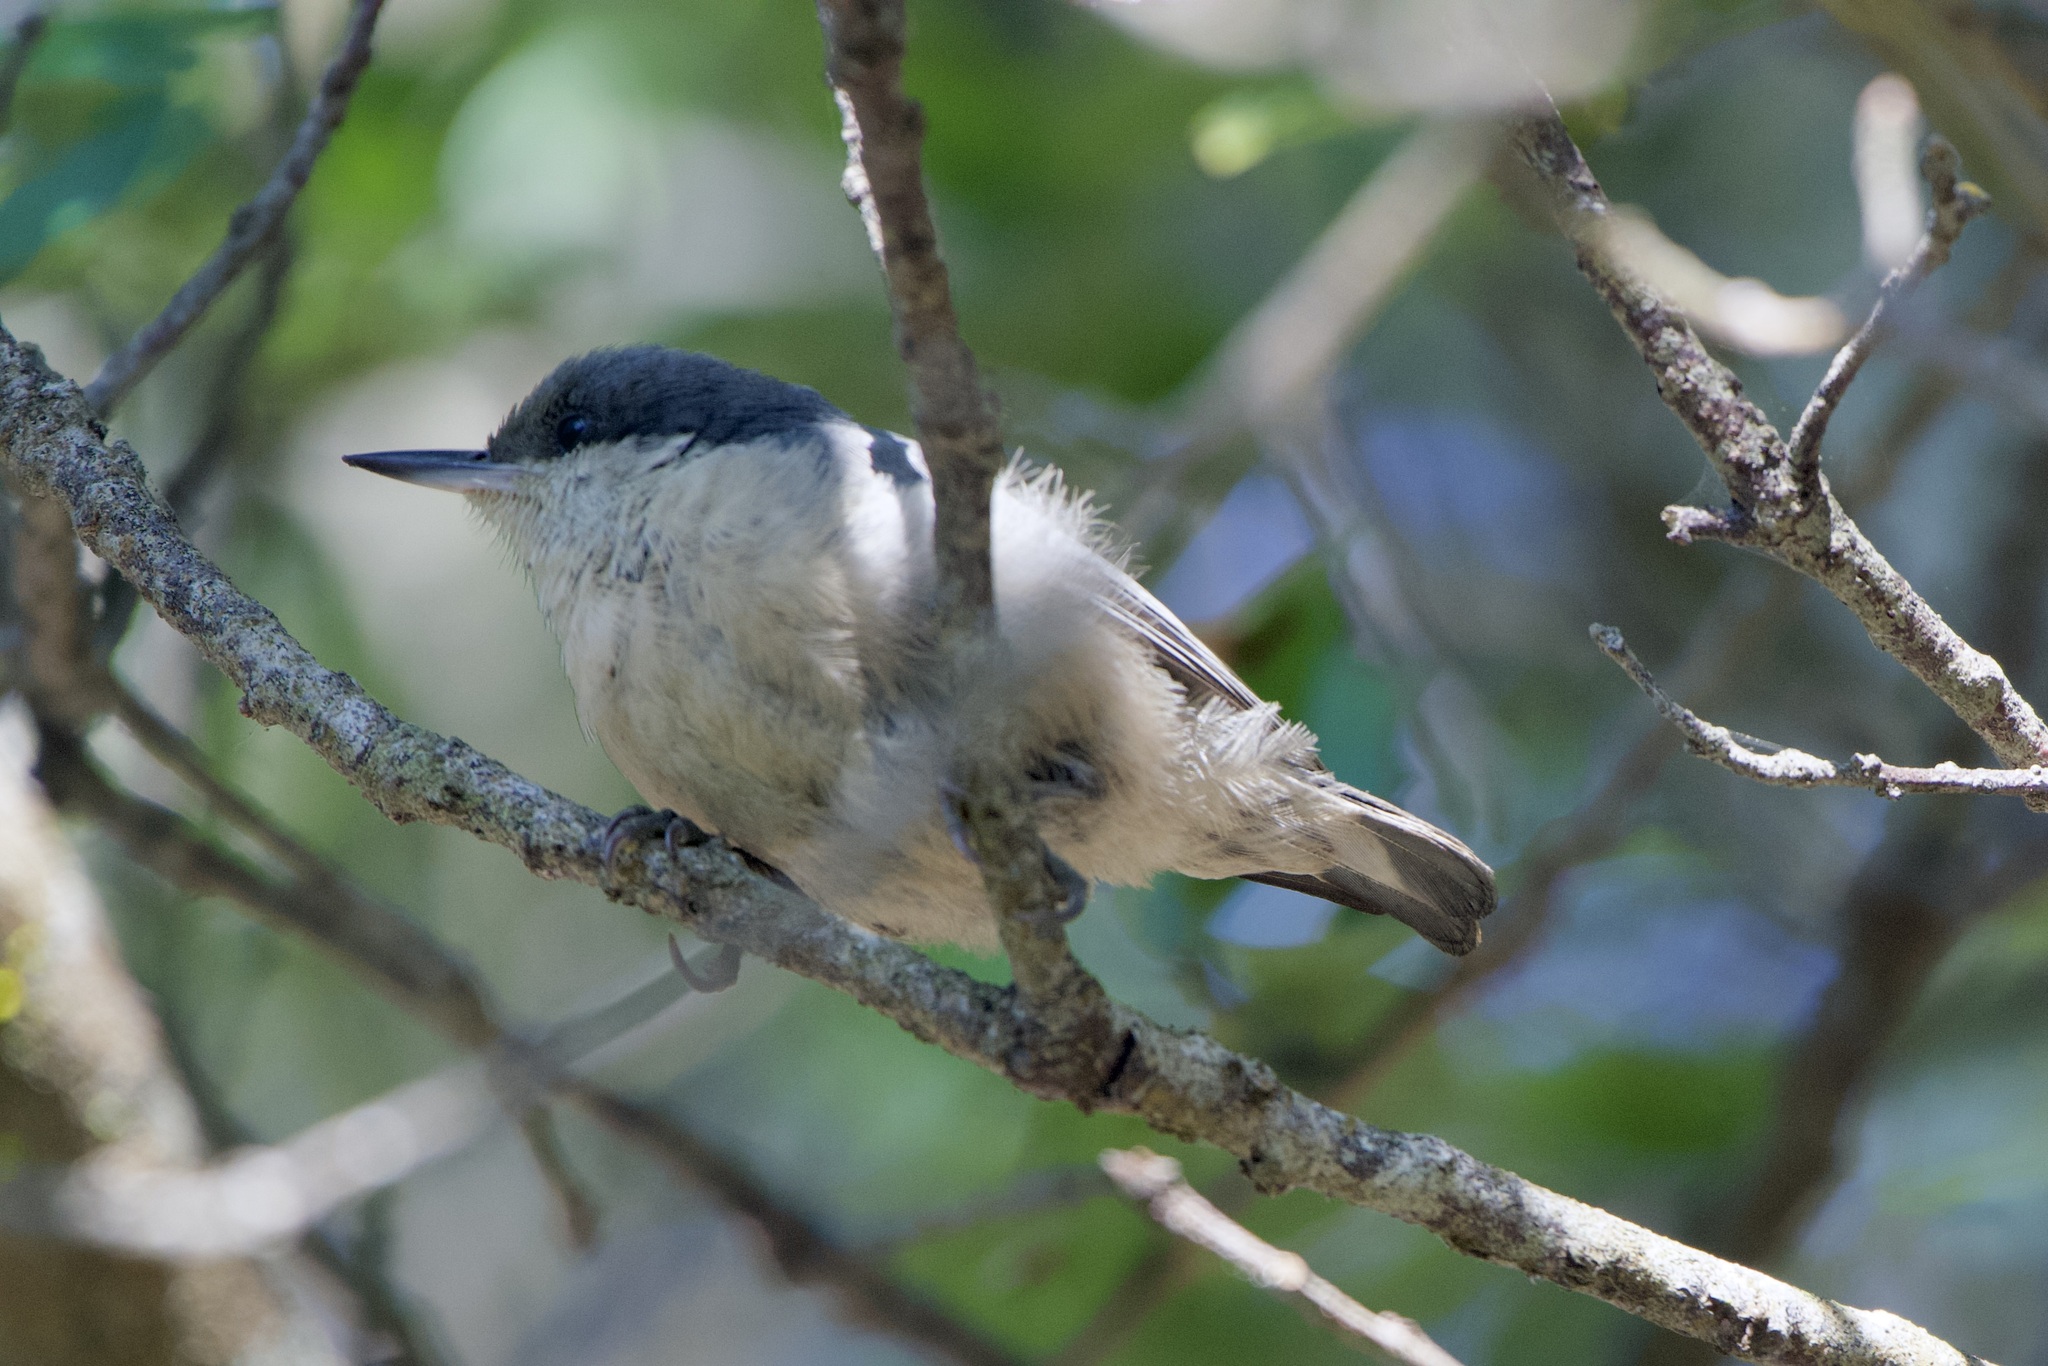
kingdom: Animalia
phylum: Chordata
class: Aves
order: Passeriformes
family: Sittidae
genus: Sitta
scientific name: Sitta pygmaea
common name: Pygmy nuthatch
